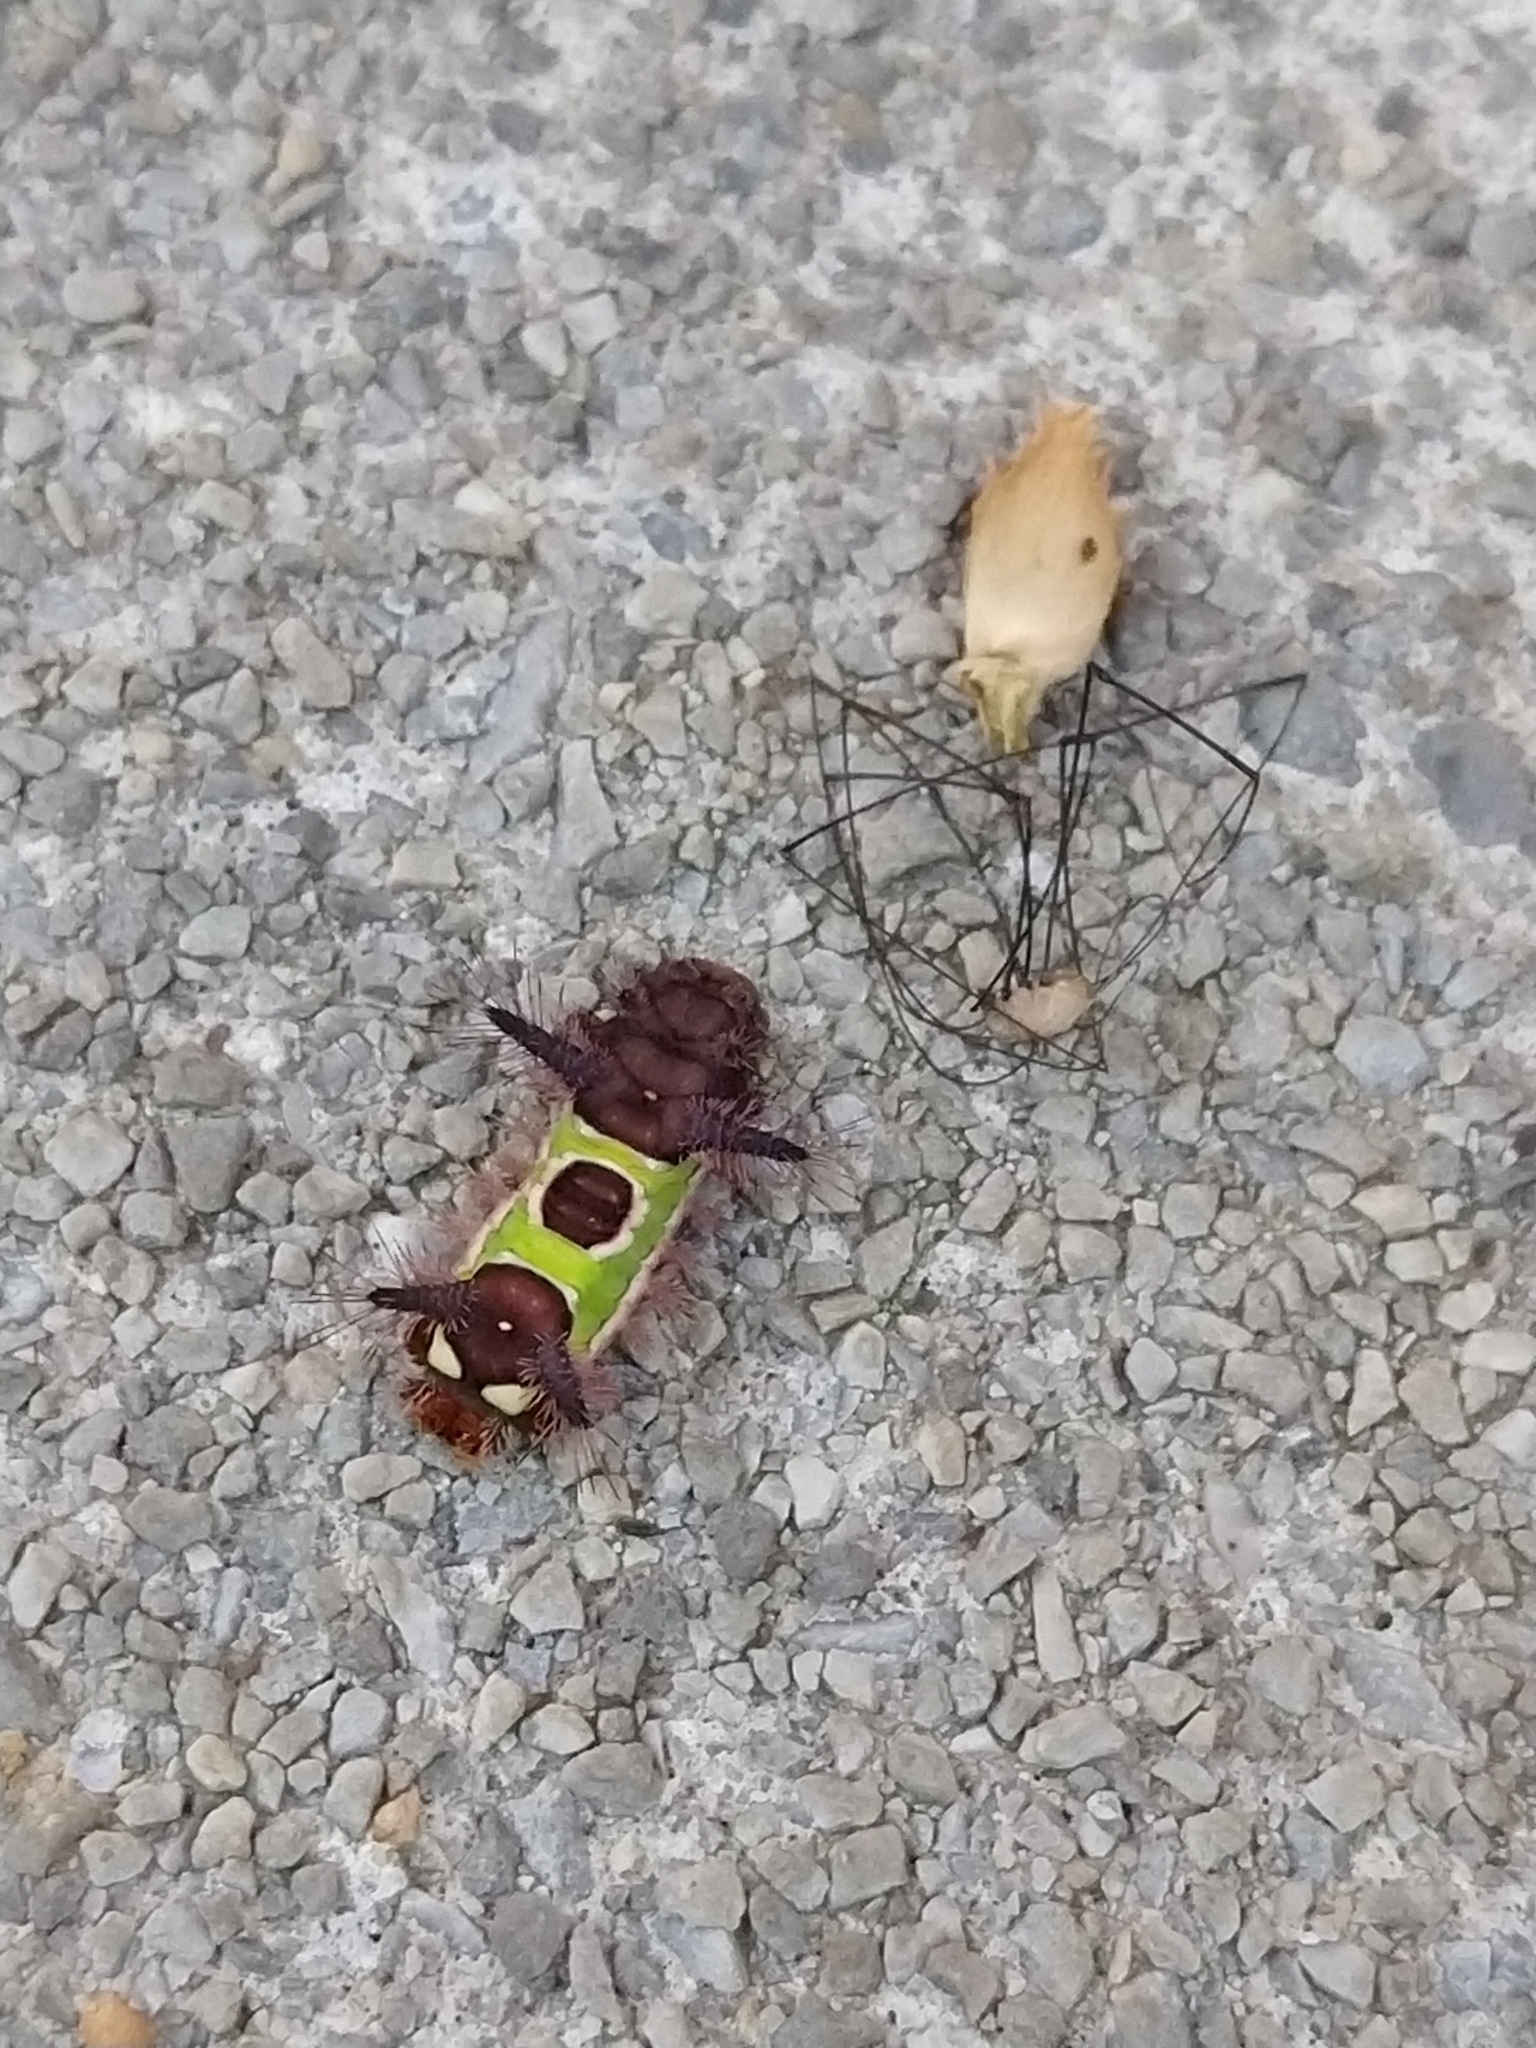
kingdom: Animalia
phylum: Arthropoda
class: Insecta
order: Lepidoptera
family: Limacodidae
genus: Acharia
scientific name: Acharia stimulea
